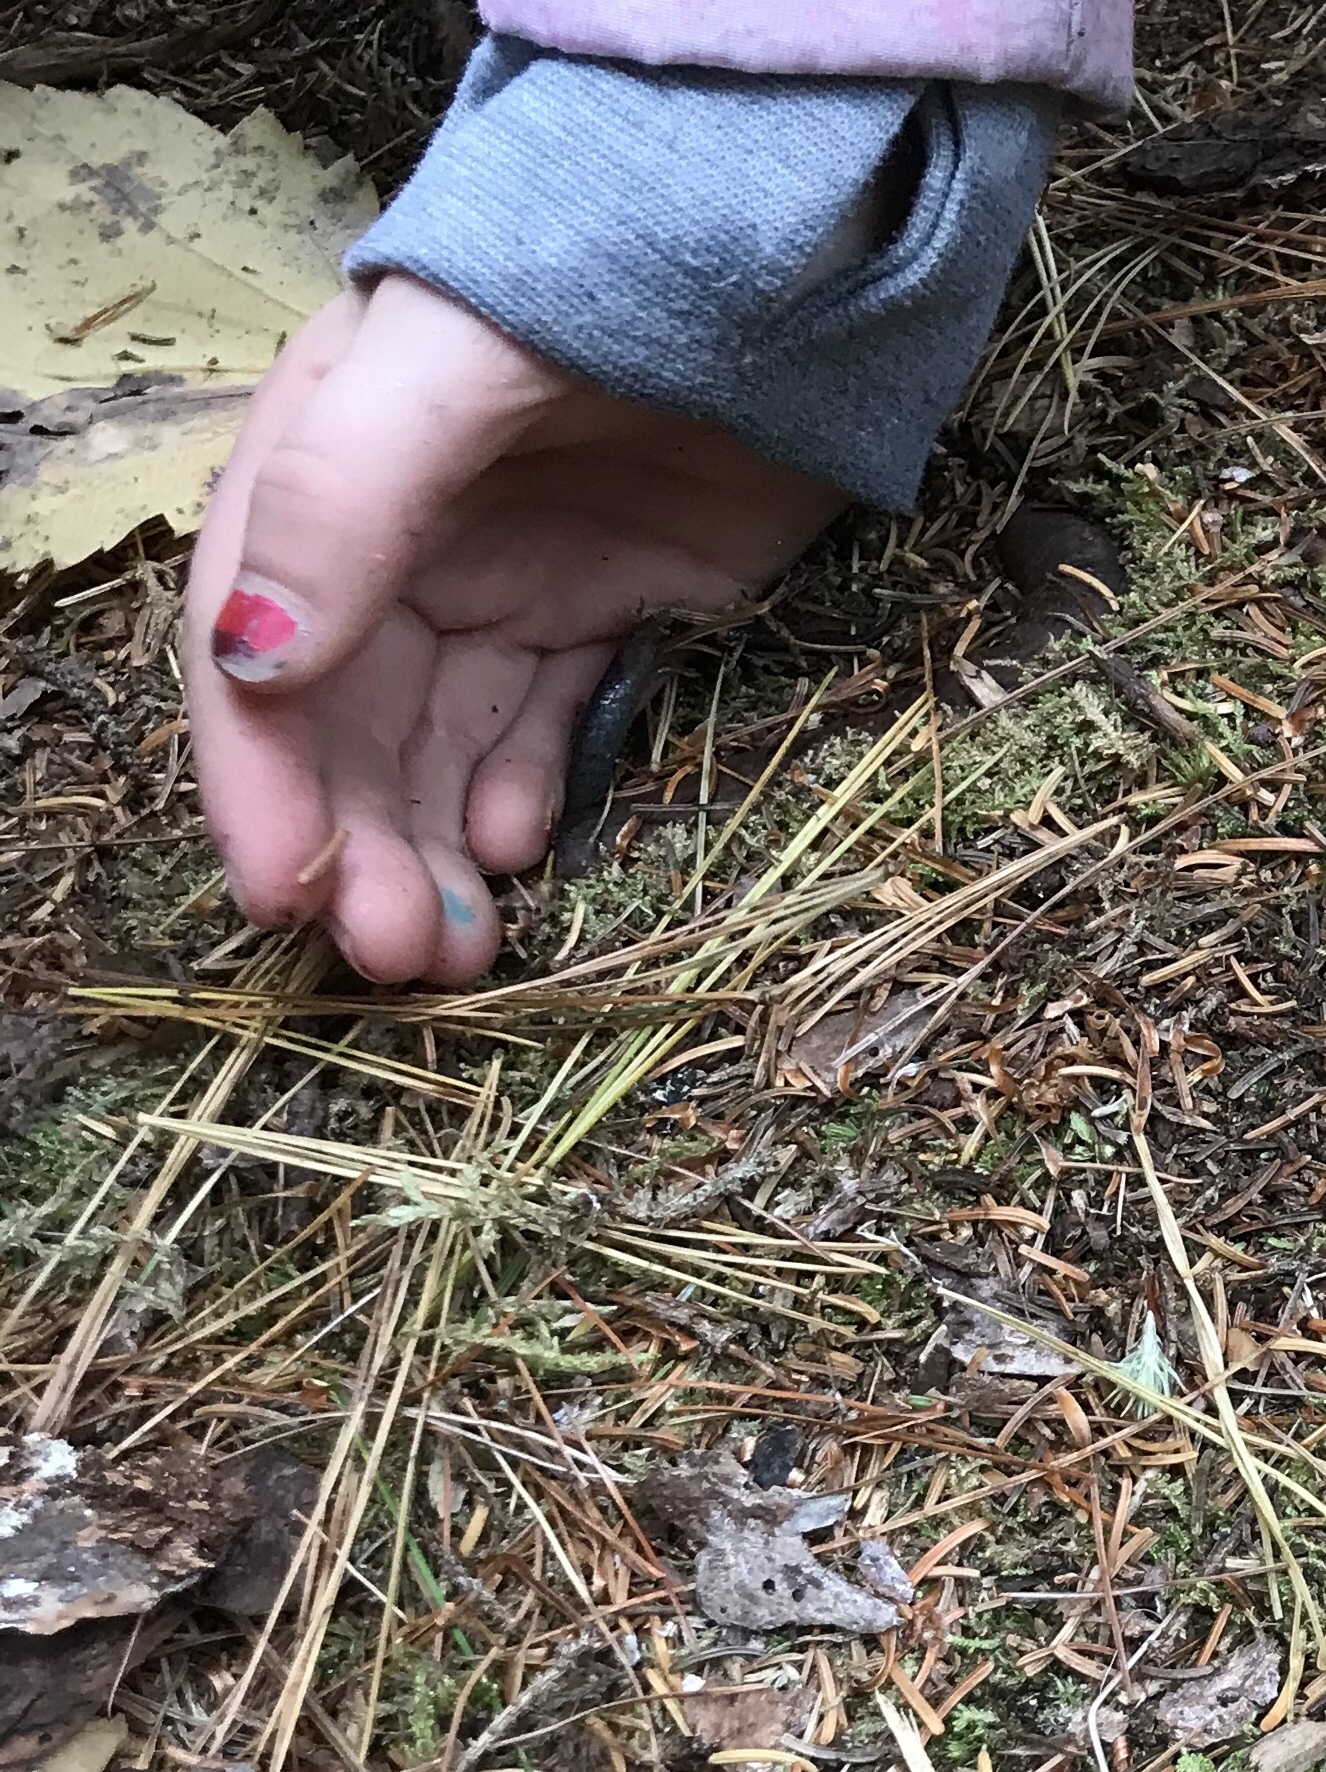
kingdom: Animalia
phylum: Chordata
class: Amphibia
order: Caudata
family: Plethodontidae
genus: Plethodon
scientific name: Plethodon cinereus
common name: Redback salamander
